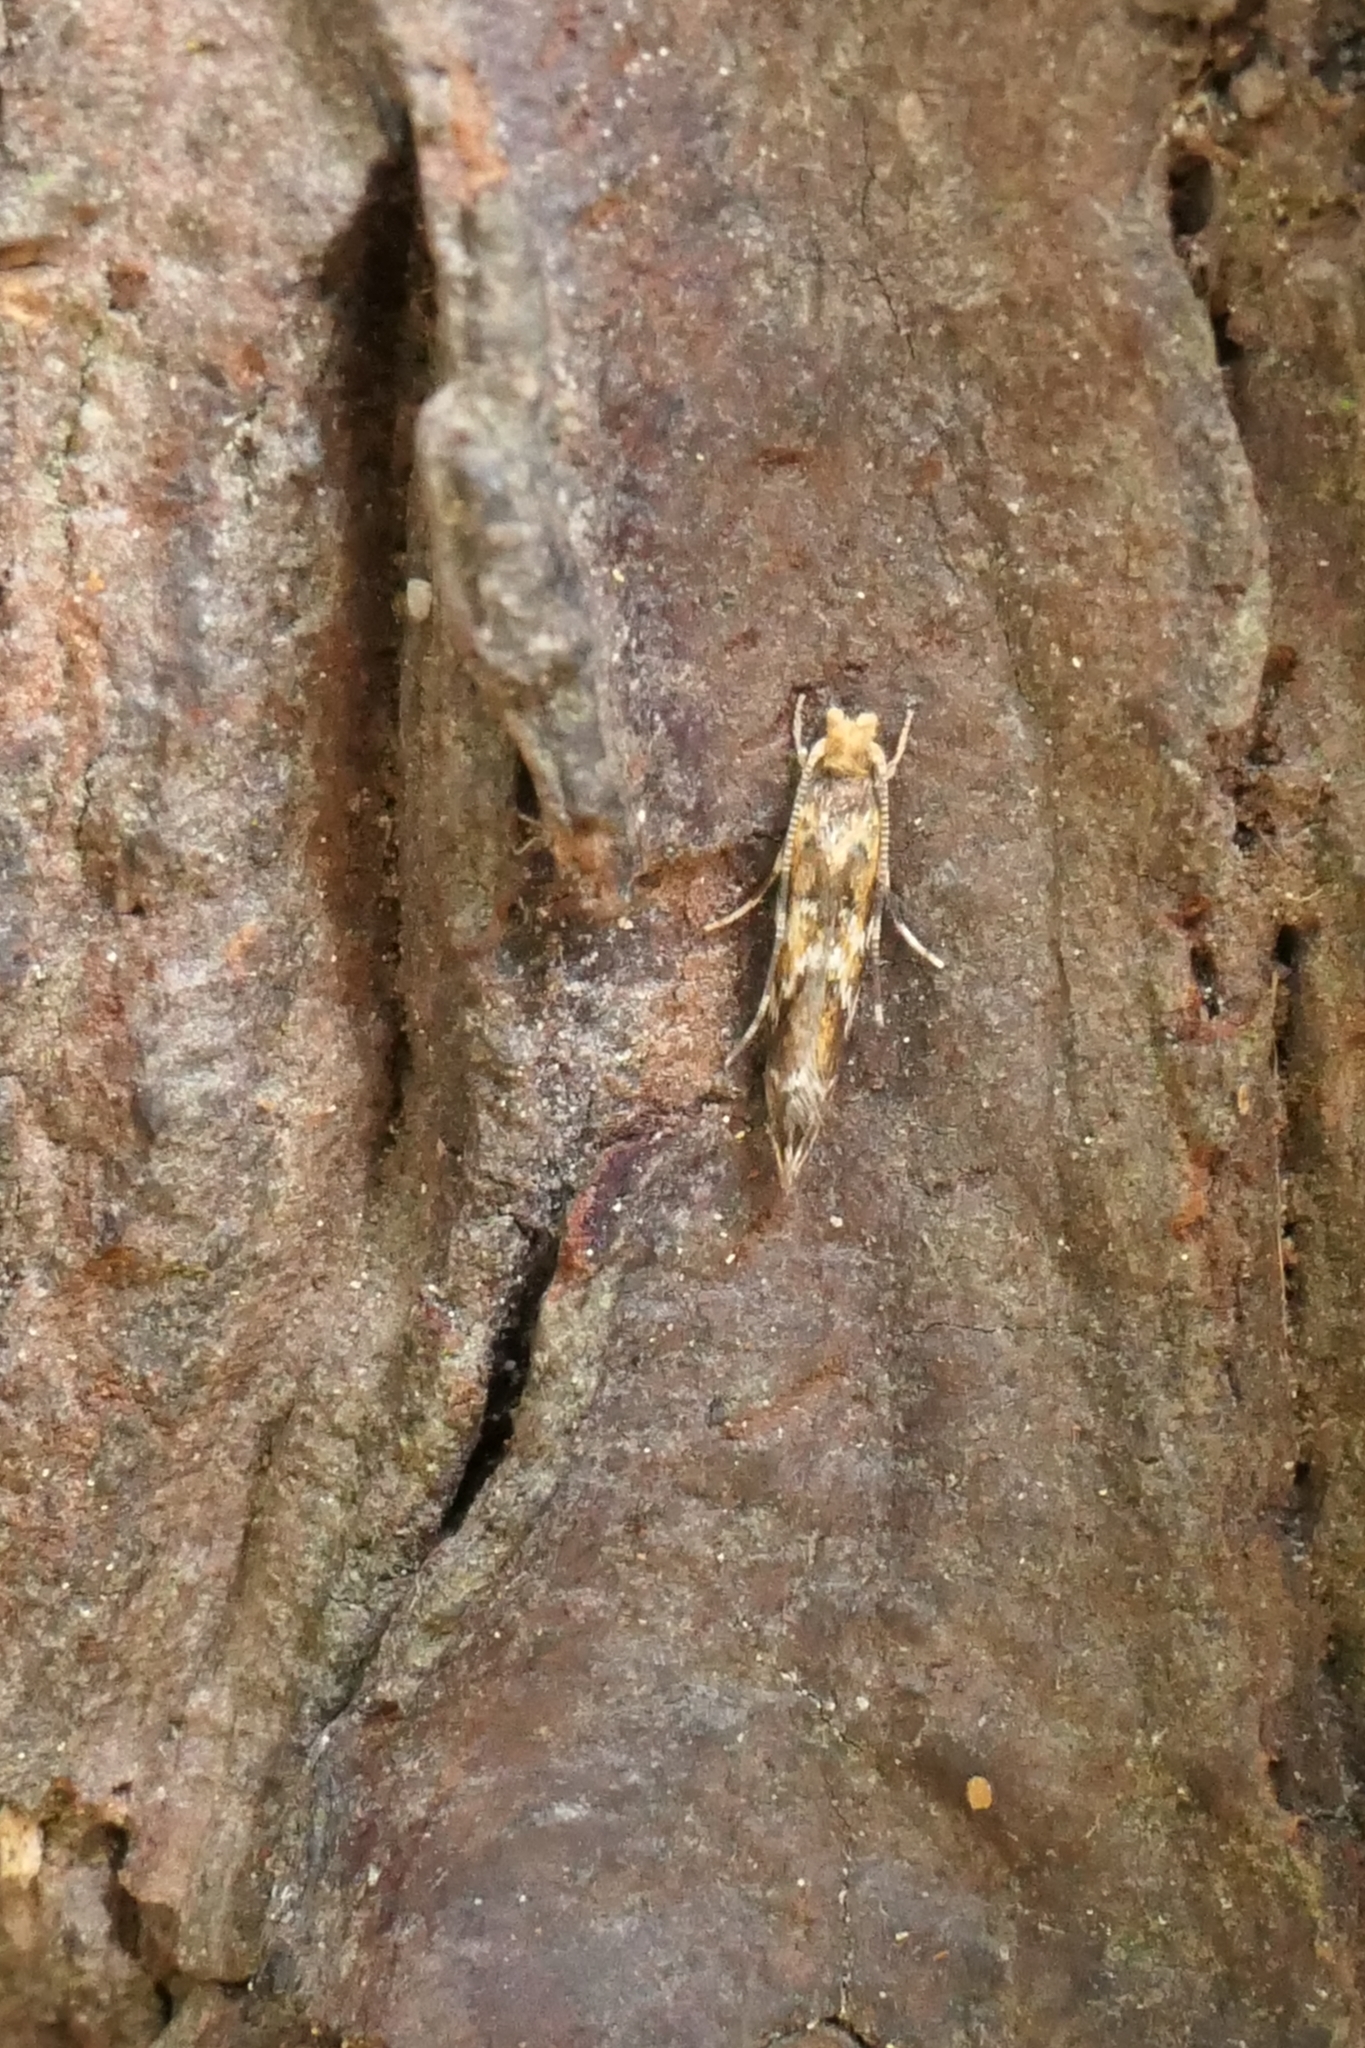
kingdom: Animalia
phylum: Arthropoda
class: Insecta
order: Lepidoptera
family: Dryadaulidae
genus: Dryadaula
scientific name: Dryadaula pactolia
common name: Cellar clothes
